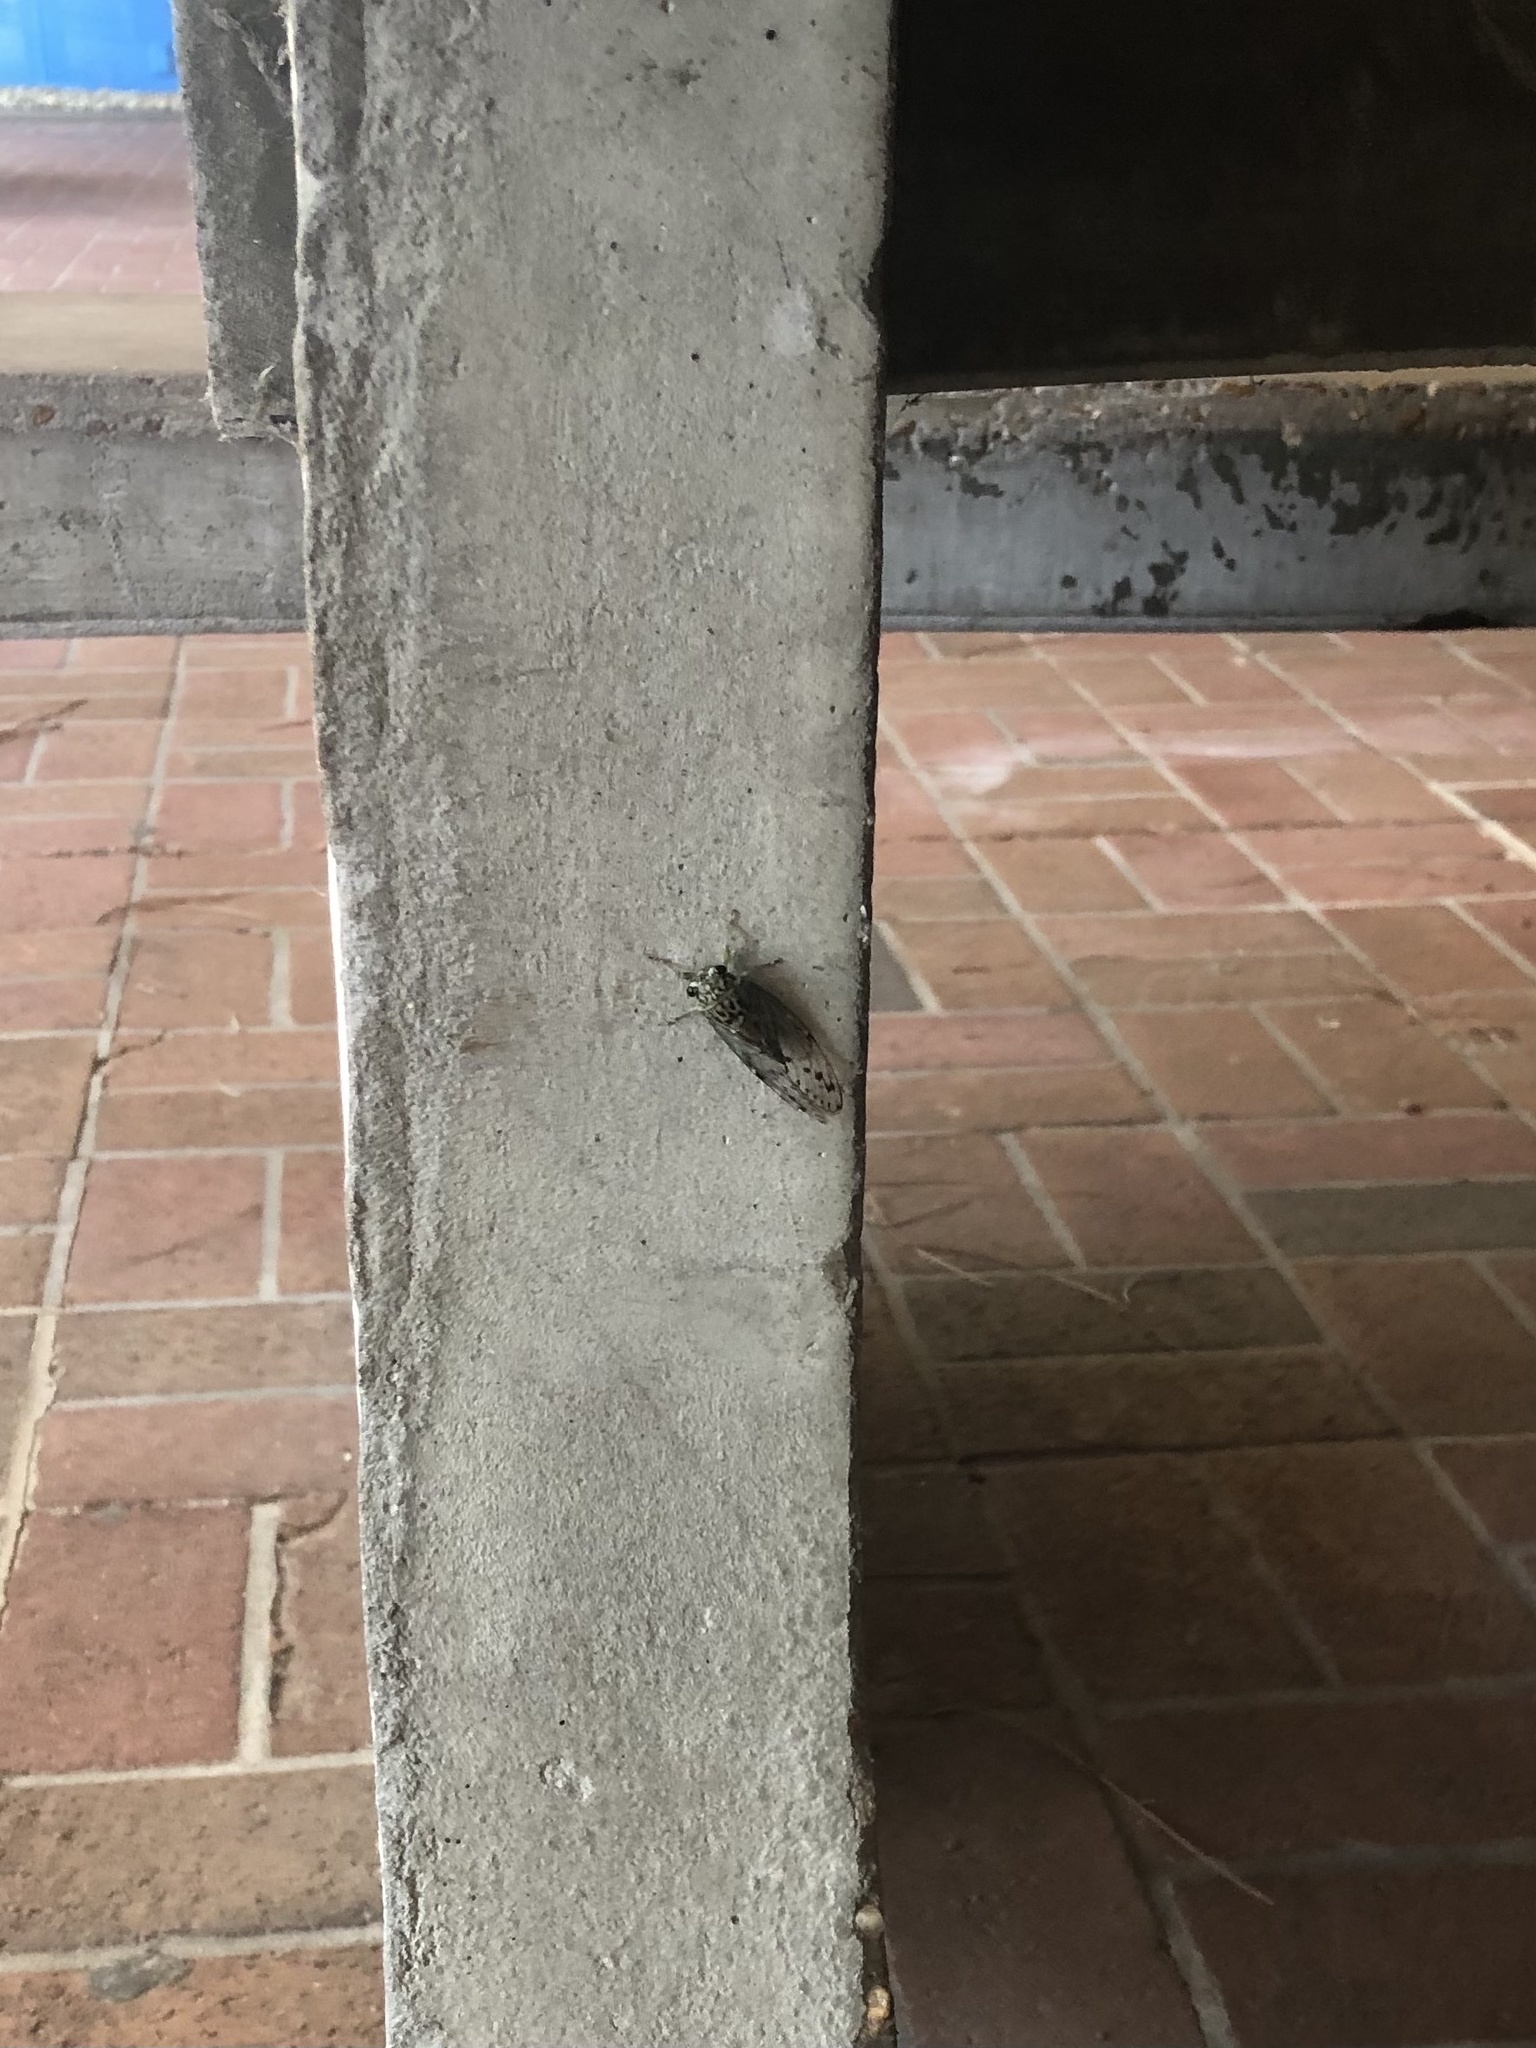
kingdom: Animalia
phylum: Arthropoda
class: Insecta
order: Hemiptera
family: Cicadidae
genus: Neocicada
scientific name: Neocicada hieroglyphica
